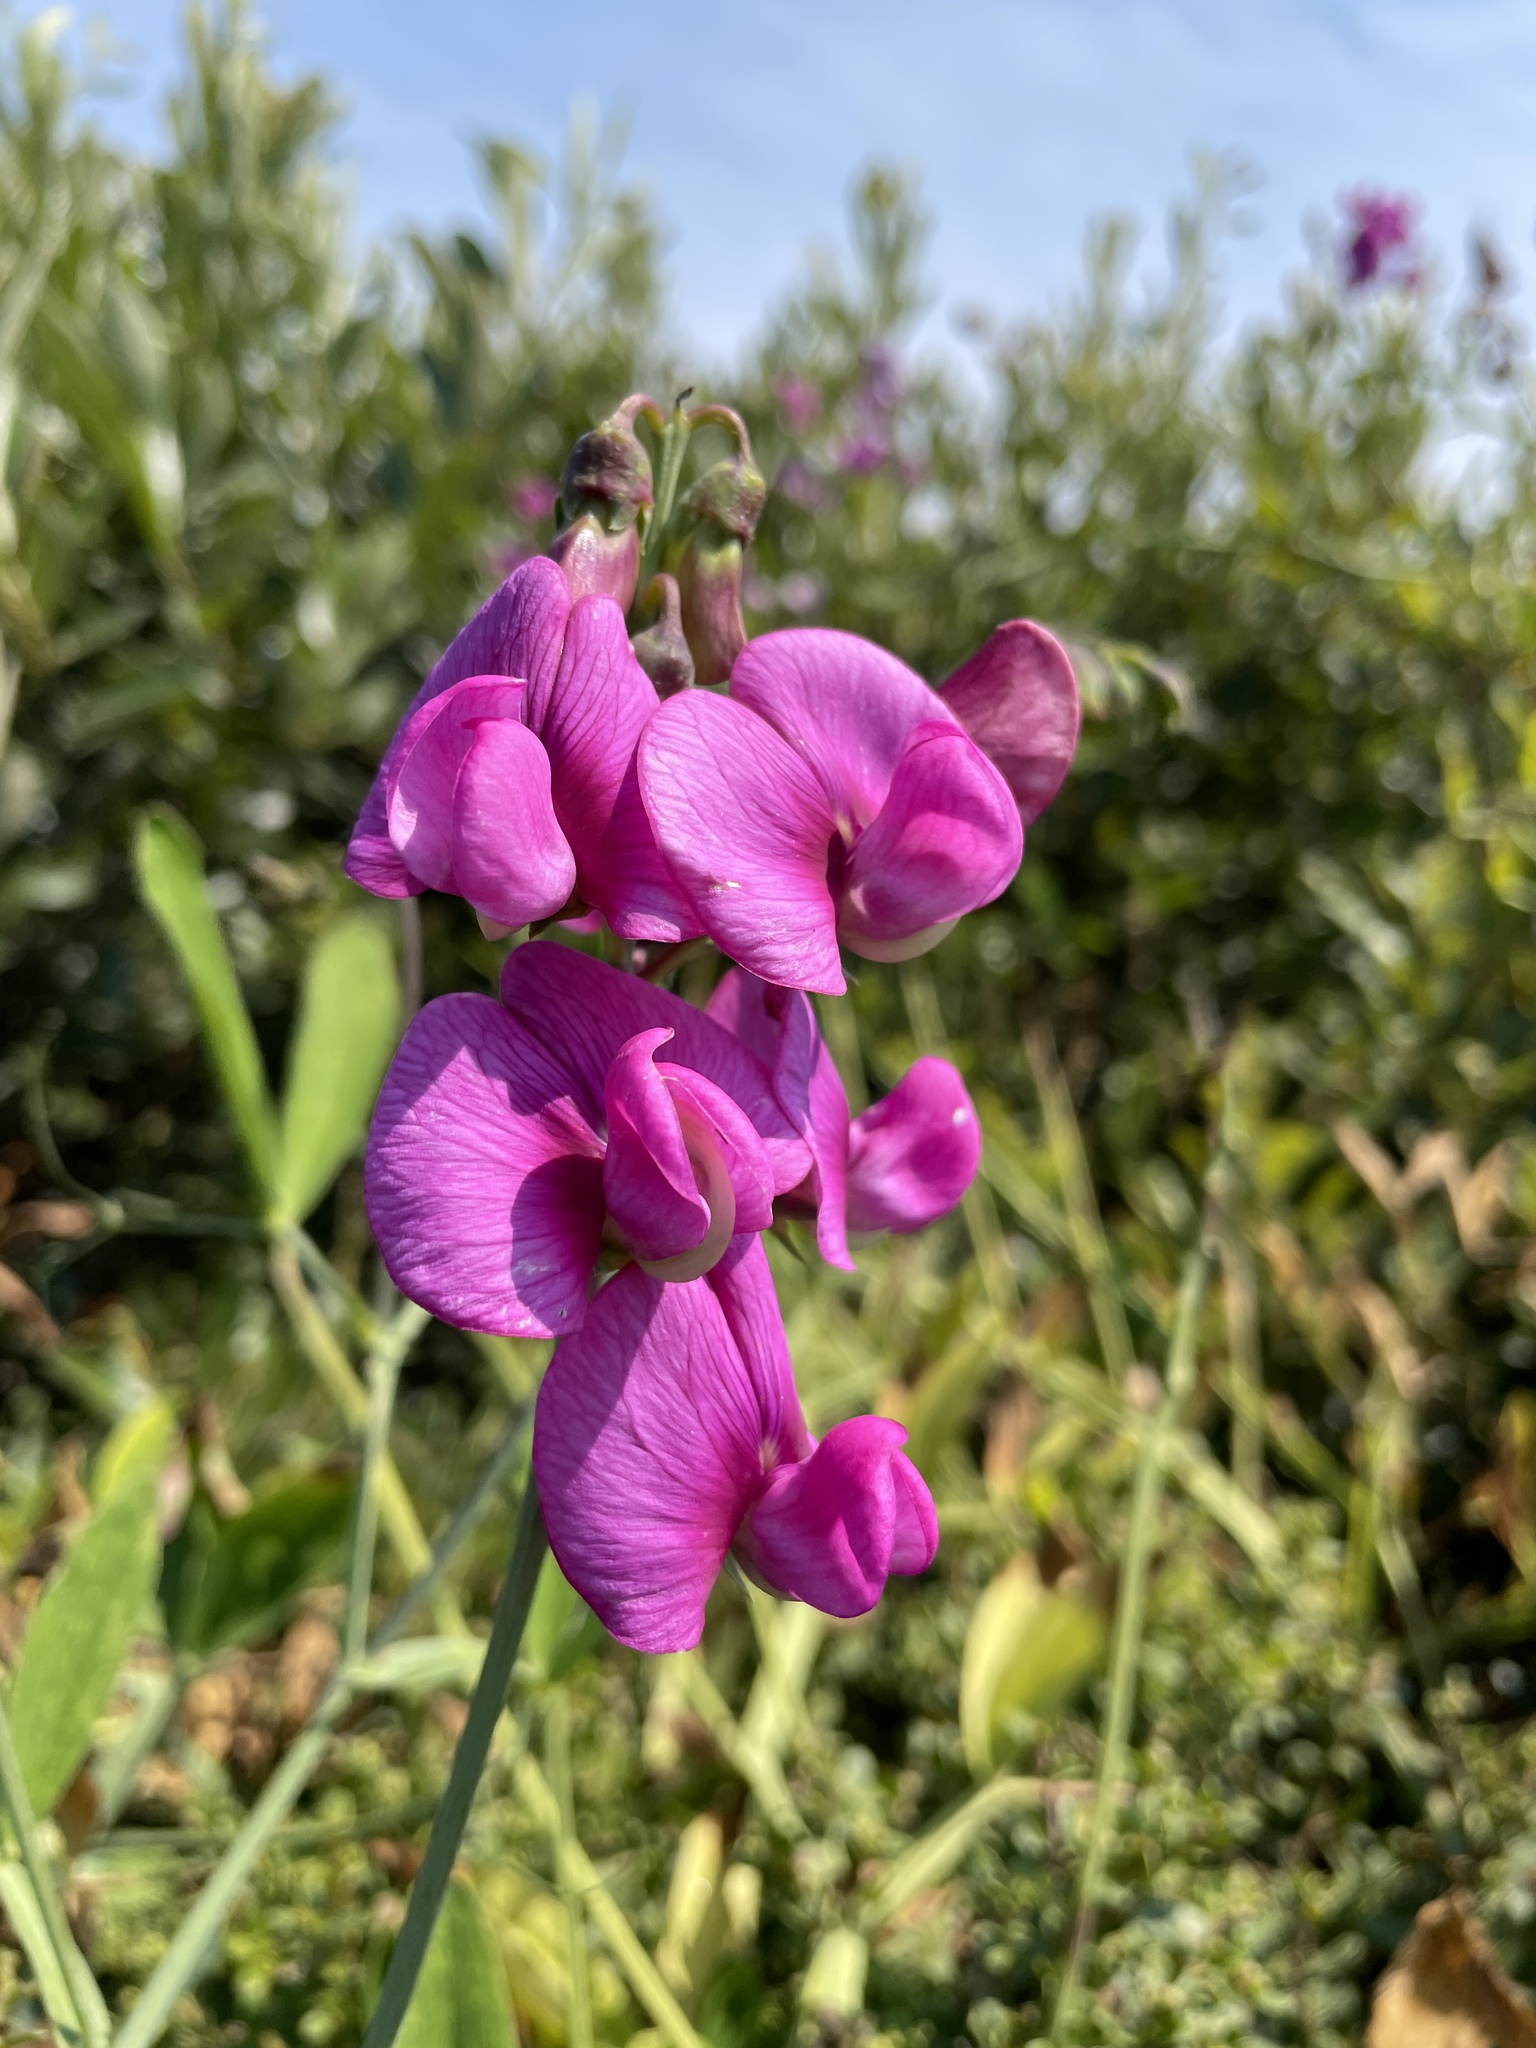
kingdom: Plantae
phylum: Tracheophyta
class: Magnoliopsida
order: Fabales
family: Fabaceae
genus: Lathyrus
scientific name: Lathyrus latifolius
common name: Perennial pea
